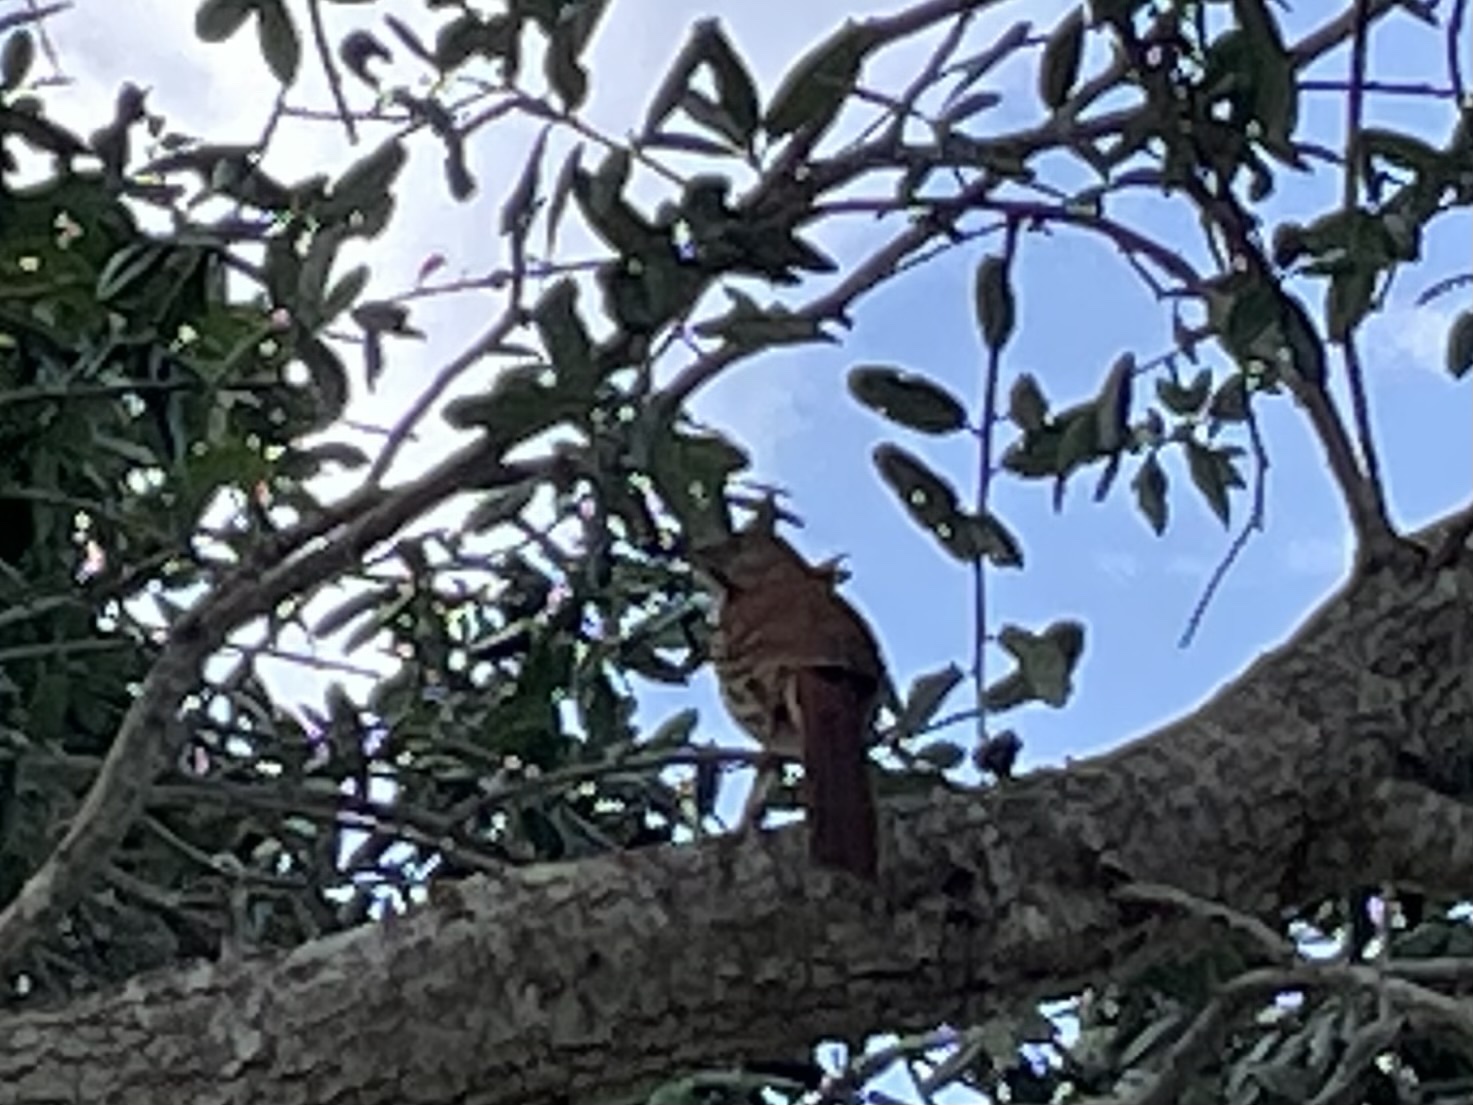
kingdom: Animalia
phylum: Chordata
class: Aves
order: Passeriformes
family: Mimidae
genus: Toxostoma
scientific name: Toxostoma rufum
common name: Brown thrasher
